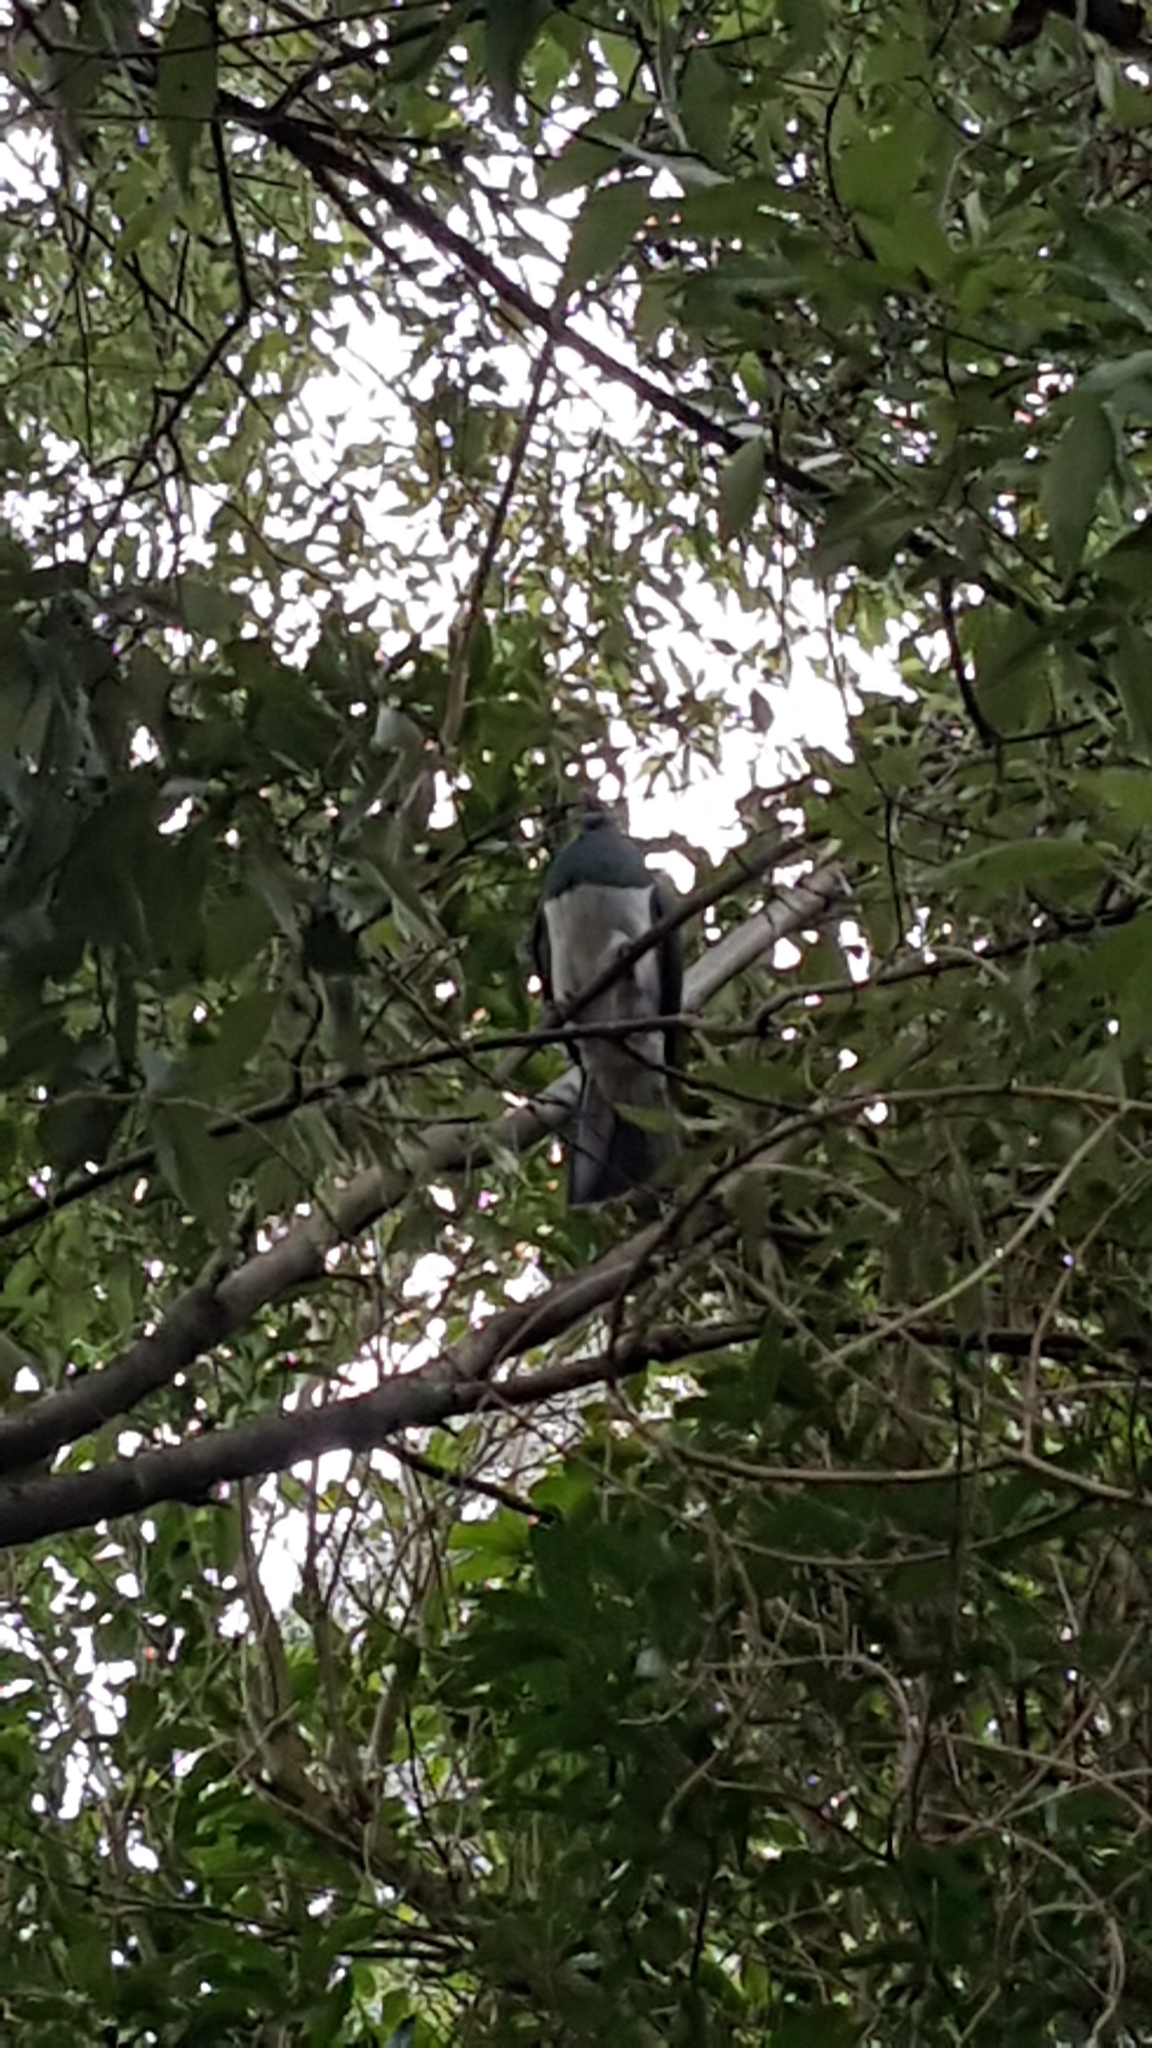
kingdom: Animalia
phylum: Chordata
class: Aves
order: Columbiformes
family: Columbidae
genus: Hemiphaga
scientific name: Hemiphaga novaeseelandiae
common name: New zealand pigeon
